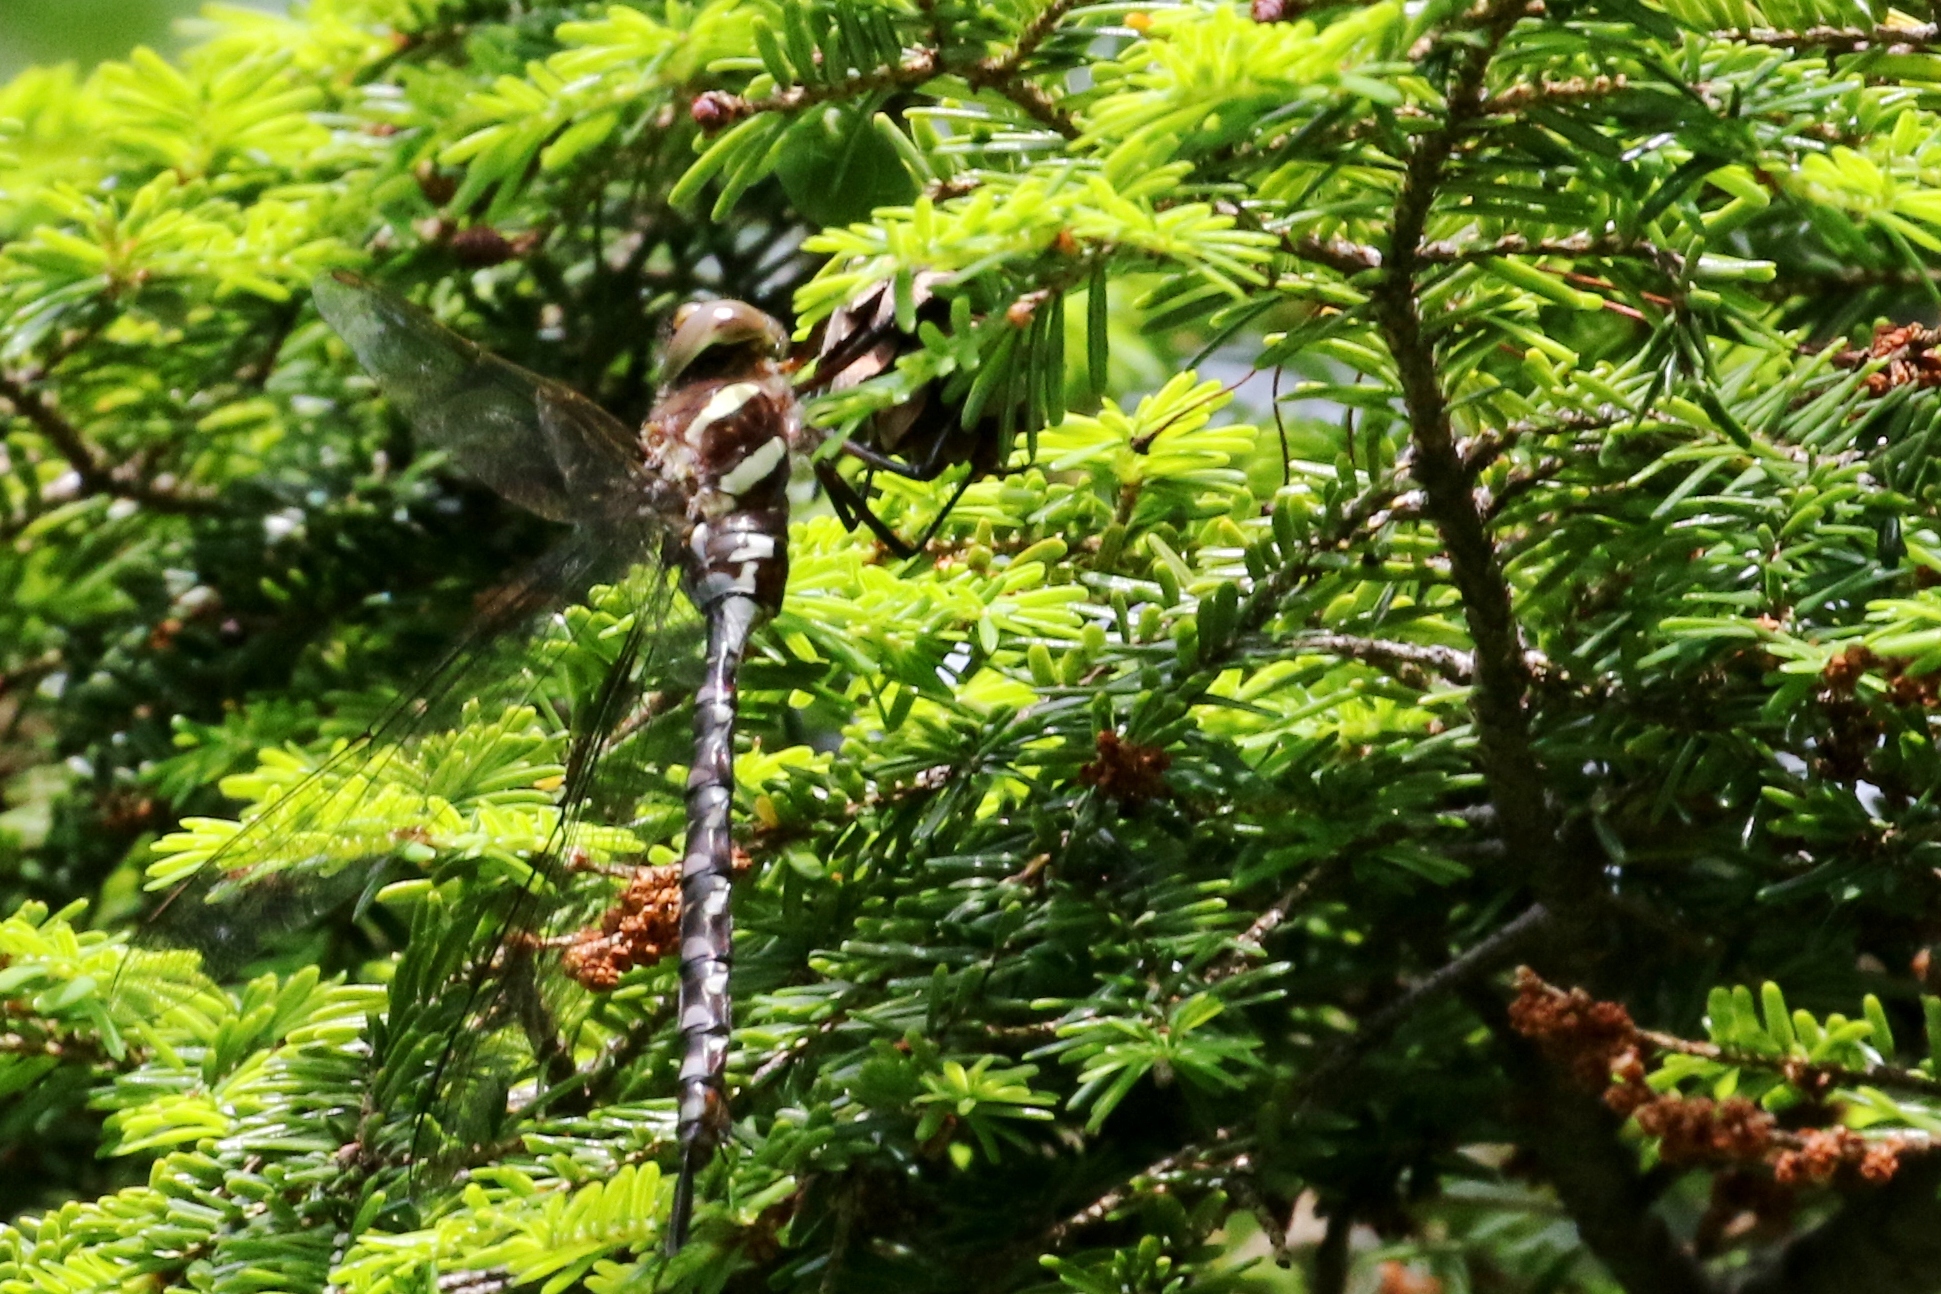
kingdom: Animalia
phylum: Arthropoda
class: Insecta
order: Odonata
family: Aeshnidae
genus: Aeshna
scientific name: Aeshna tuberculifera
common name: Aeschne à tubercules
